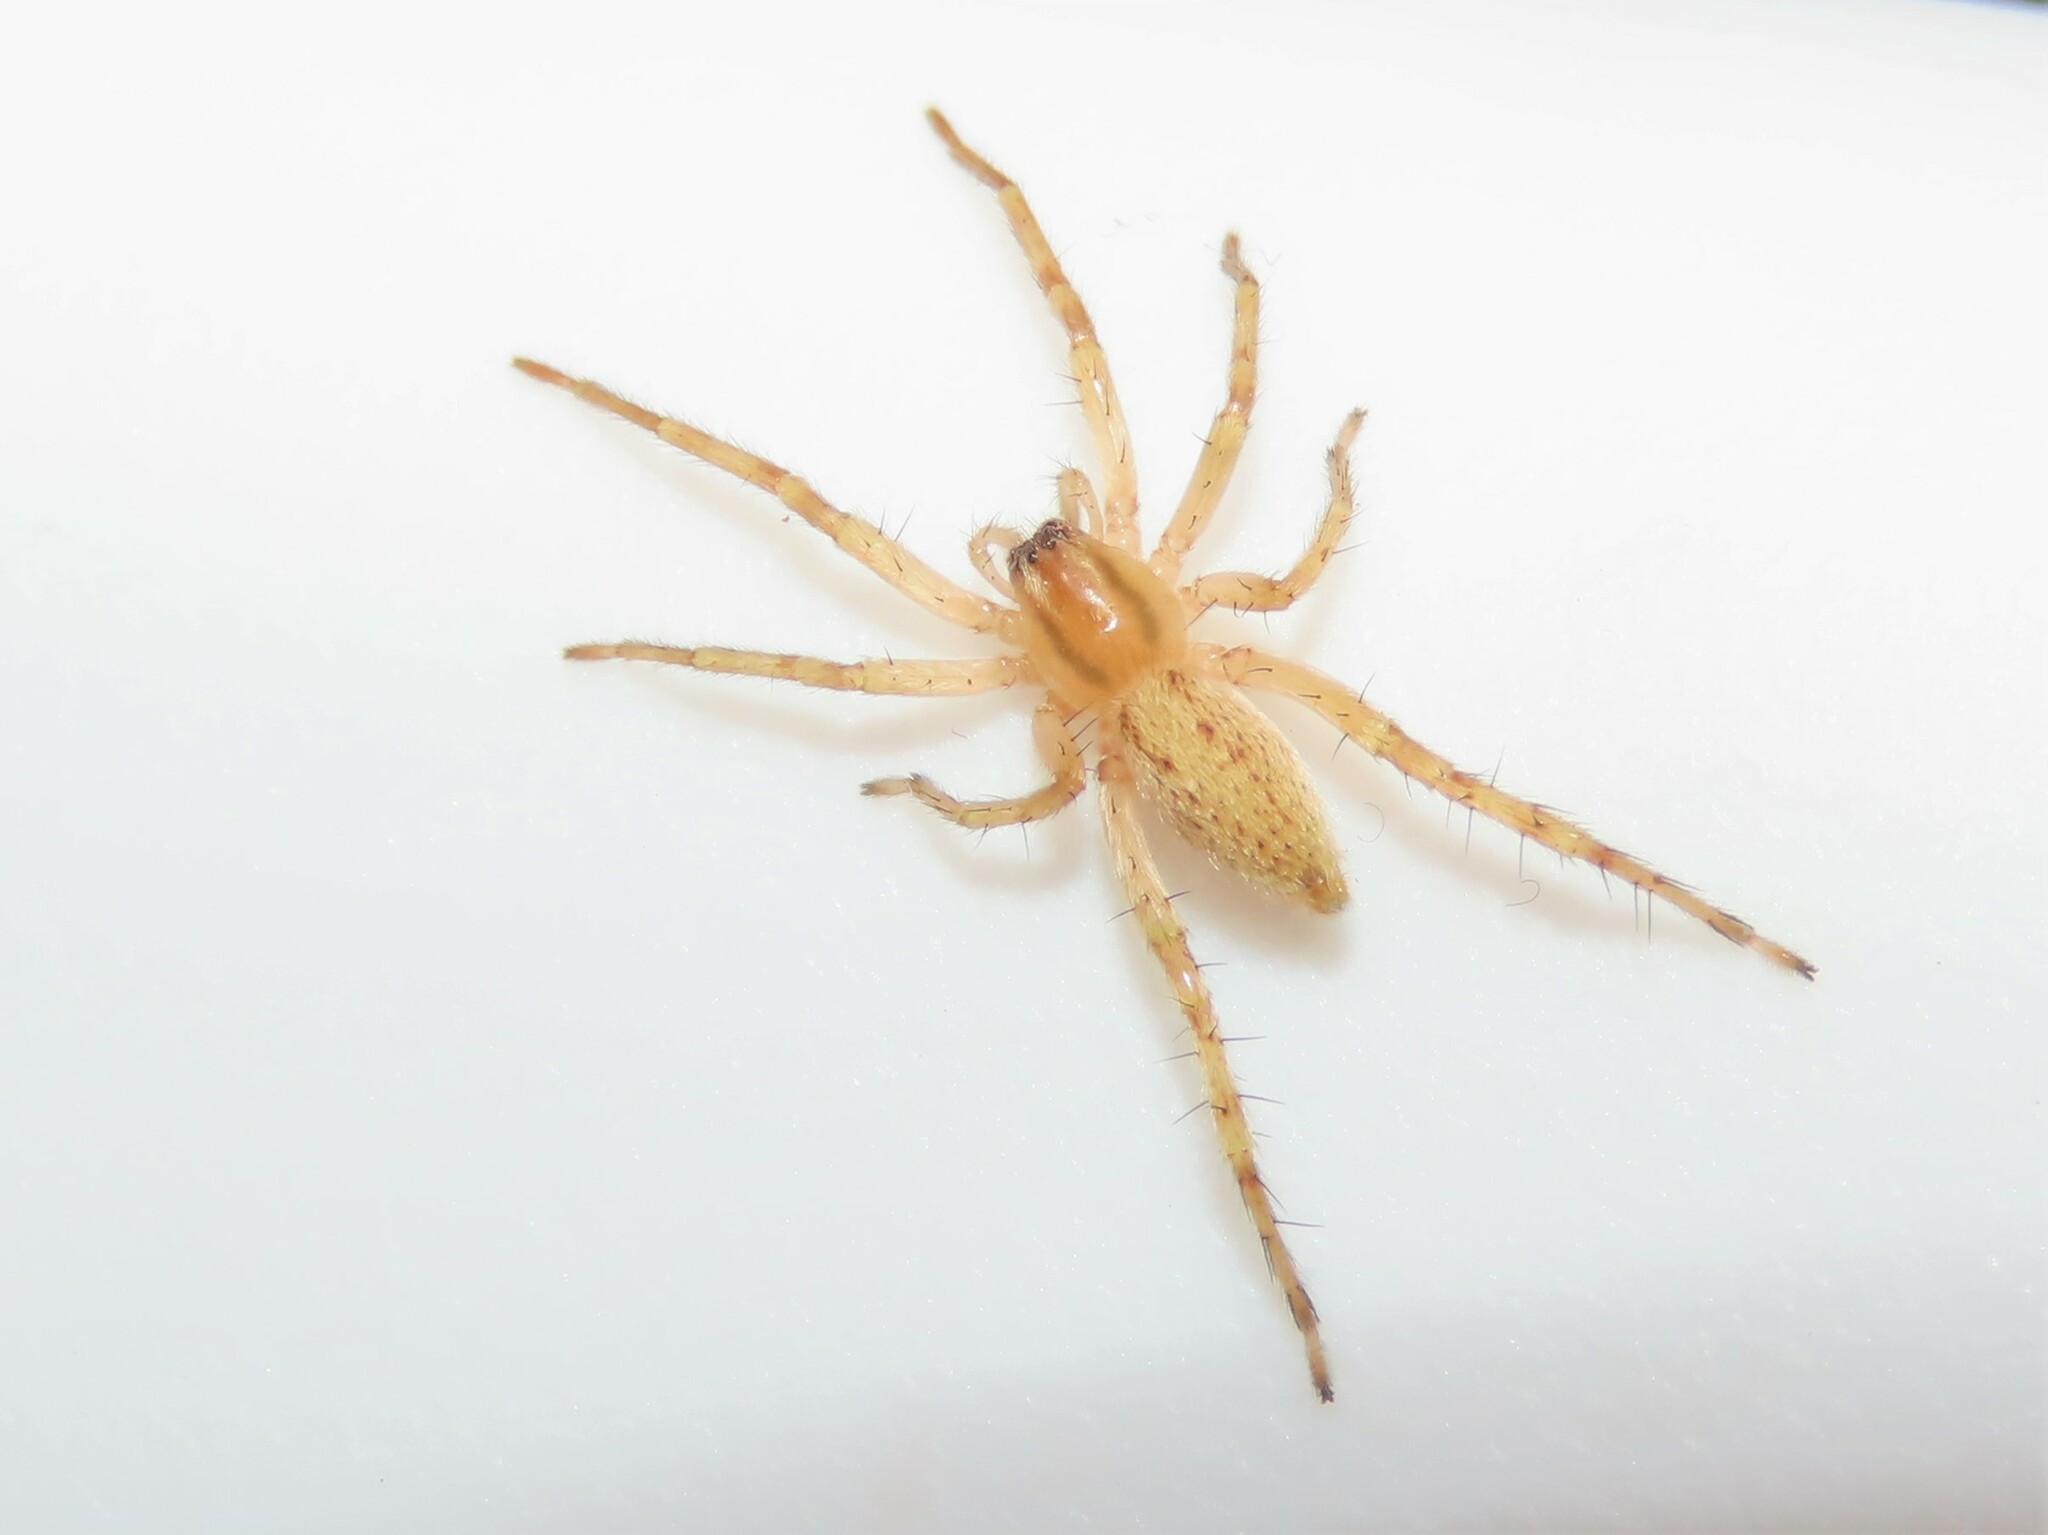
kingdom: Animalia
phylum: Arthropoda
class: Arachnida
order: Araneae
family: Anyphaenidae
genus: Hibana
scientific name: Hibana gracilis
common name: Garden ghost spider
